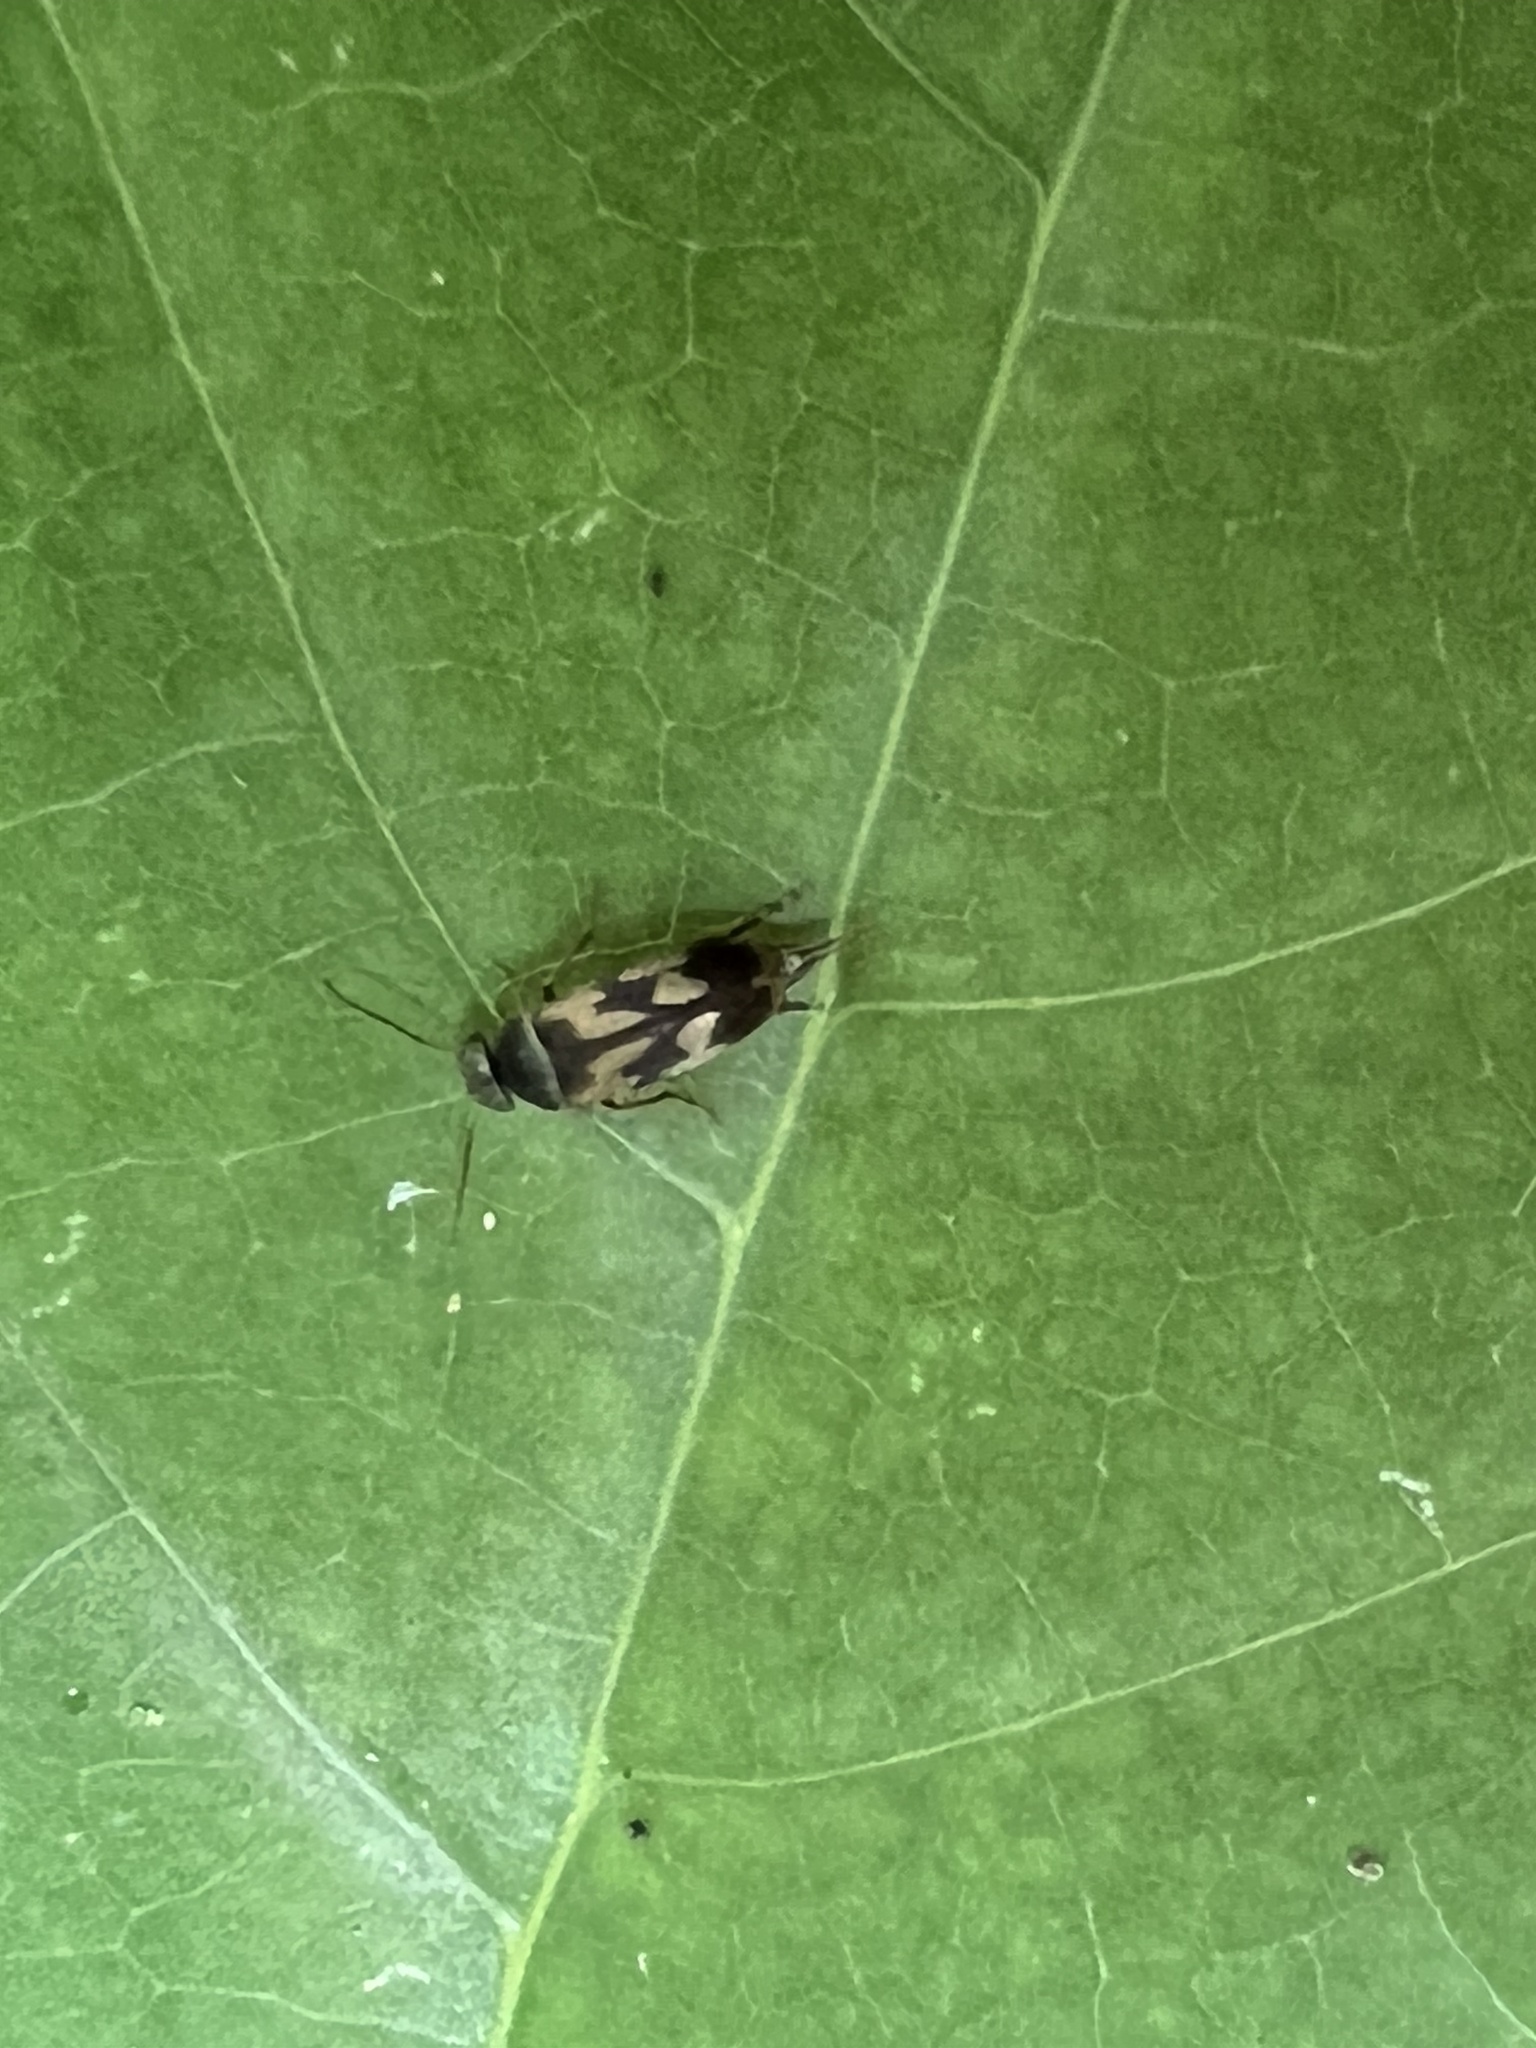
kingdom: Animalia
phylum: Arthropoda
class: Insecta
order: Coleoptera
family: Mordellidae
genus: Falsomordellistena
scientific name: Falsomordellistena bihamata
